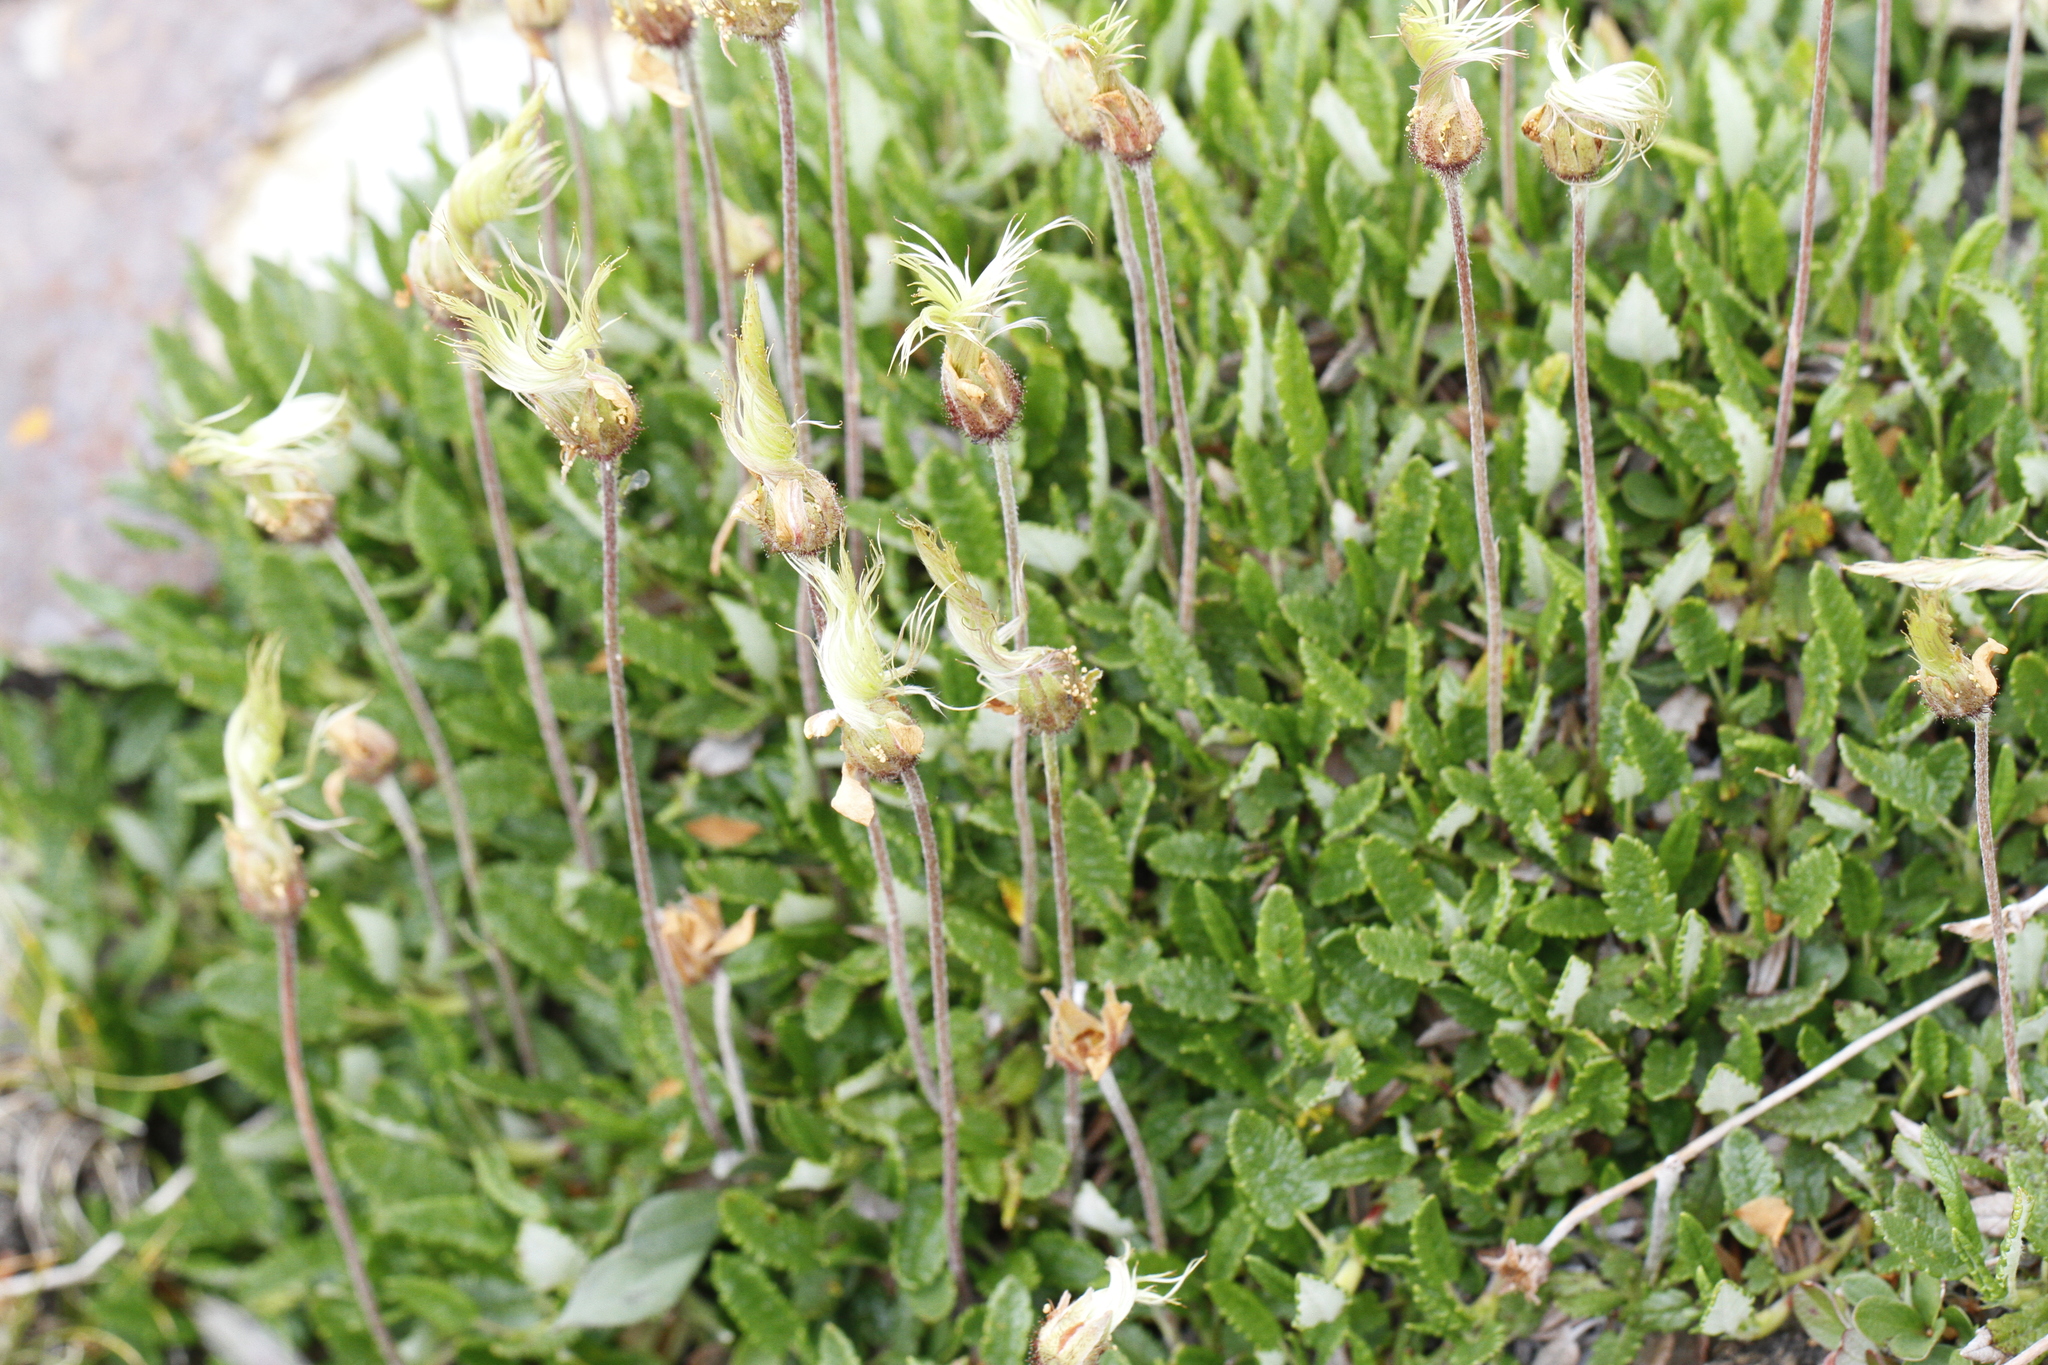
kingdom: Plantae
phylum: Tracheophyta
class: Magnoliopsida
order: Rosales
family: Rosaceae
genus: Dryas
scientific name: Dryas octopetala
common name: Eight-petal mountain-avens
